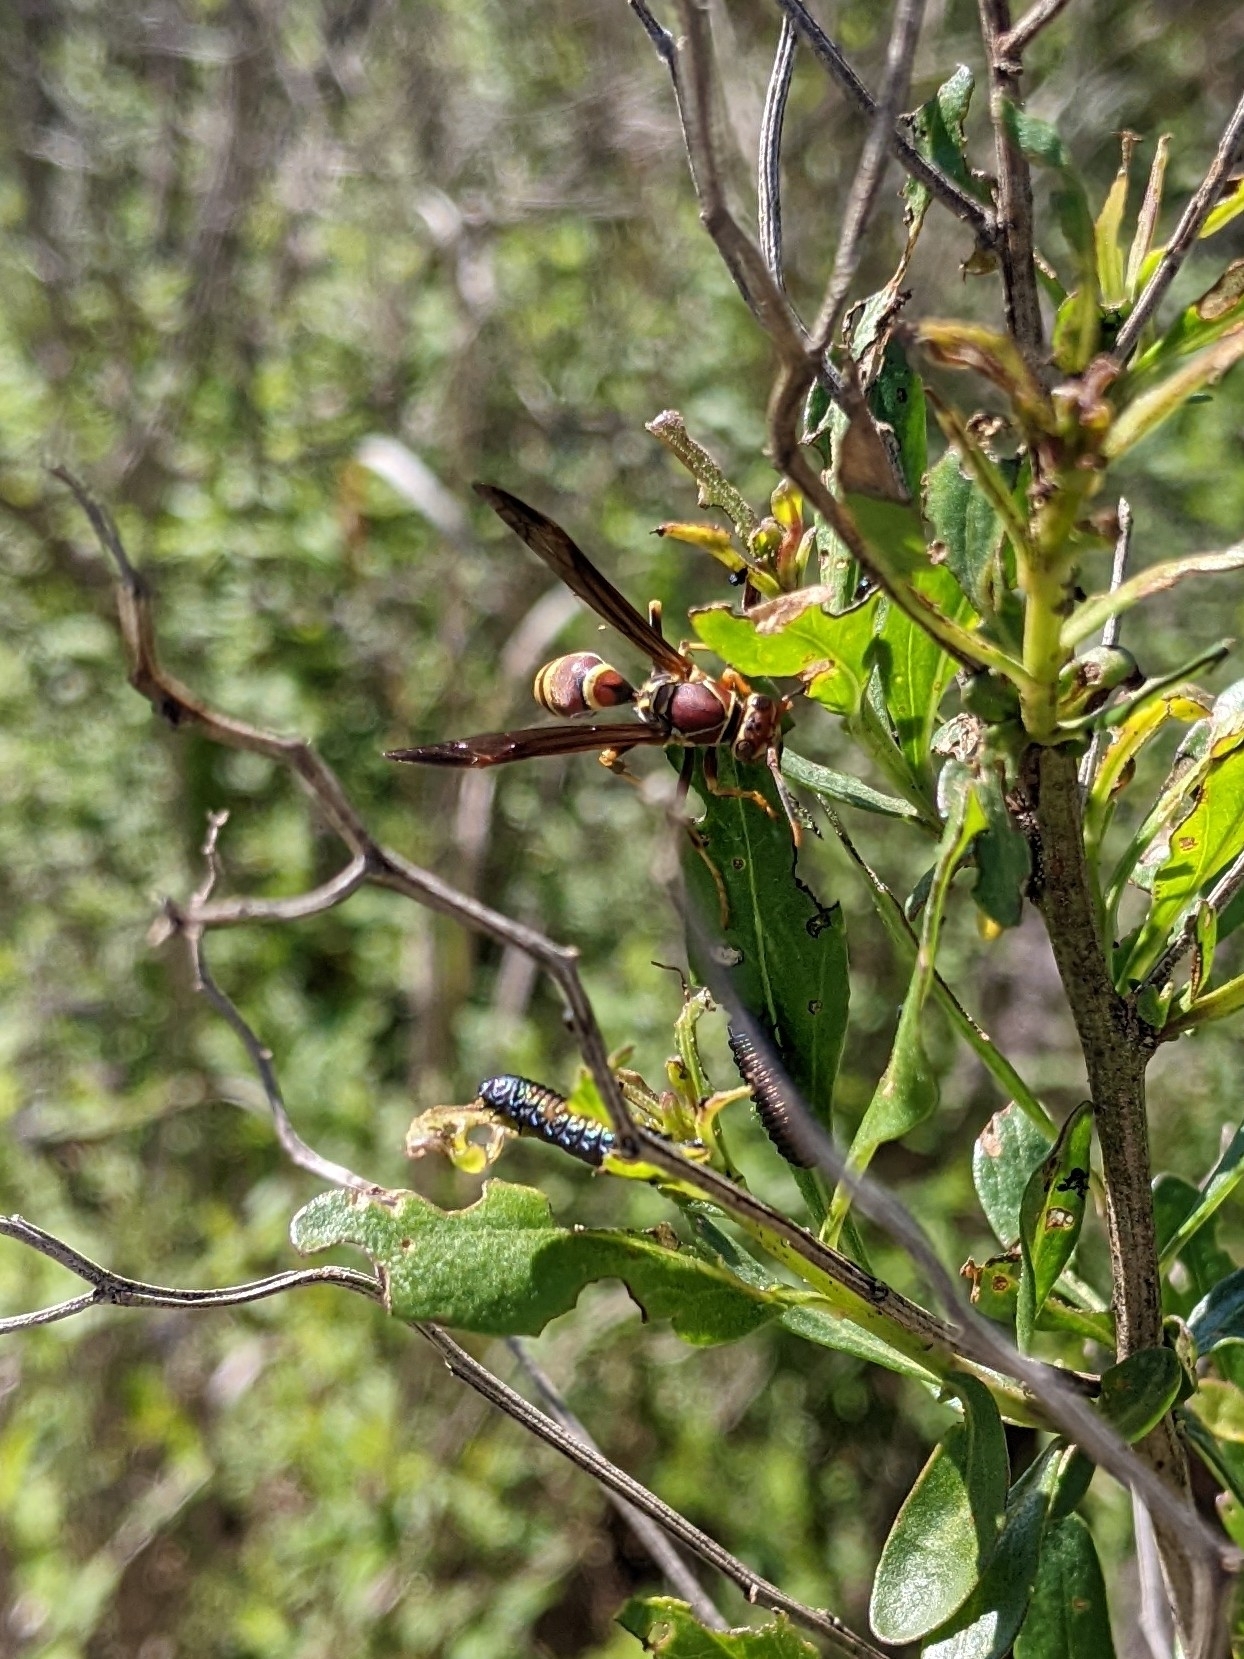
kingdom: Animalia
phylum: Arthropoda
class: Insecta
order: Hymenoptera
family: Eumenidae
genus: Polistes
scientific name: Polistes exclamans
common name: Paper wasp
